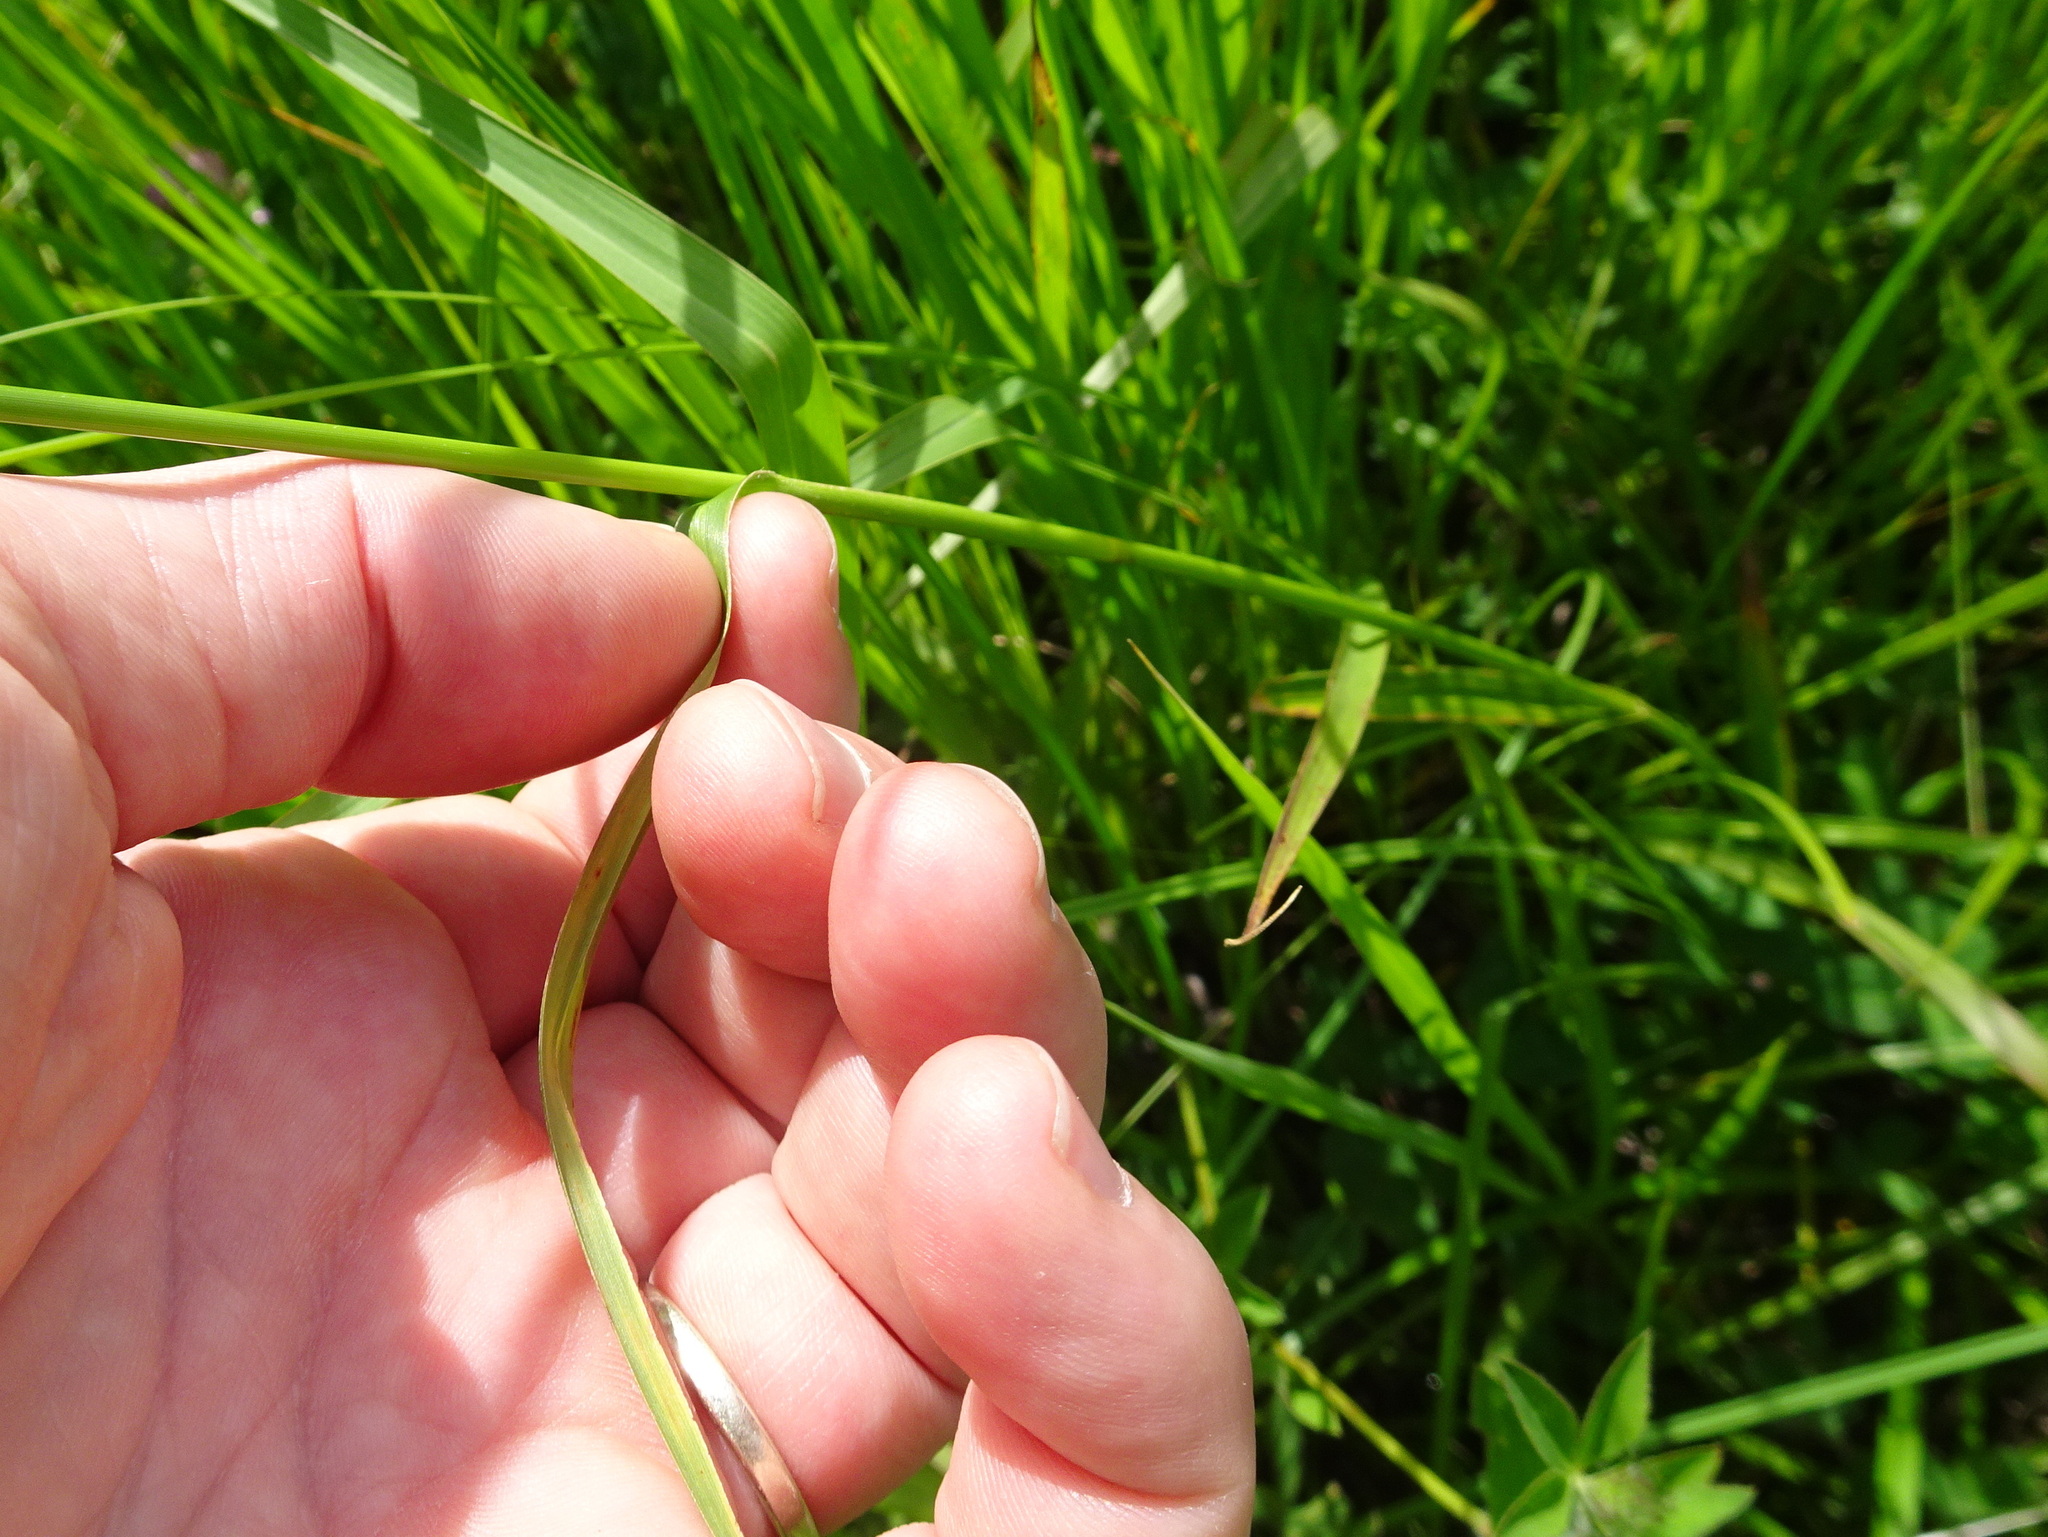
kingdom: Plantae
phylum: Tracheophyta
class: Liliopsida
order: Poales
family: Cyperaceae
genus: Scirpus
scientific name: Scirpus pendulus
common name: Nodding bulrush
